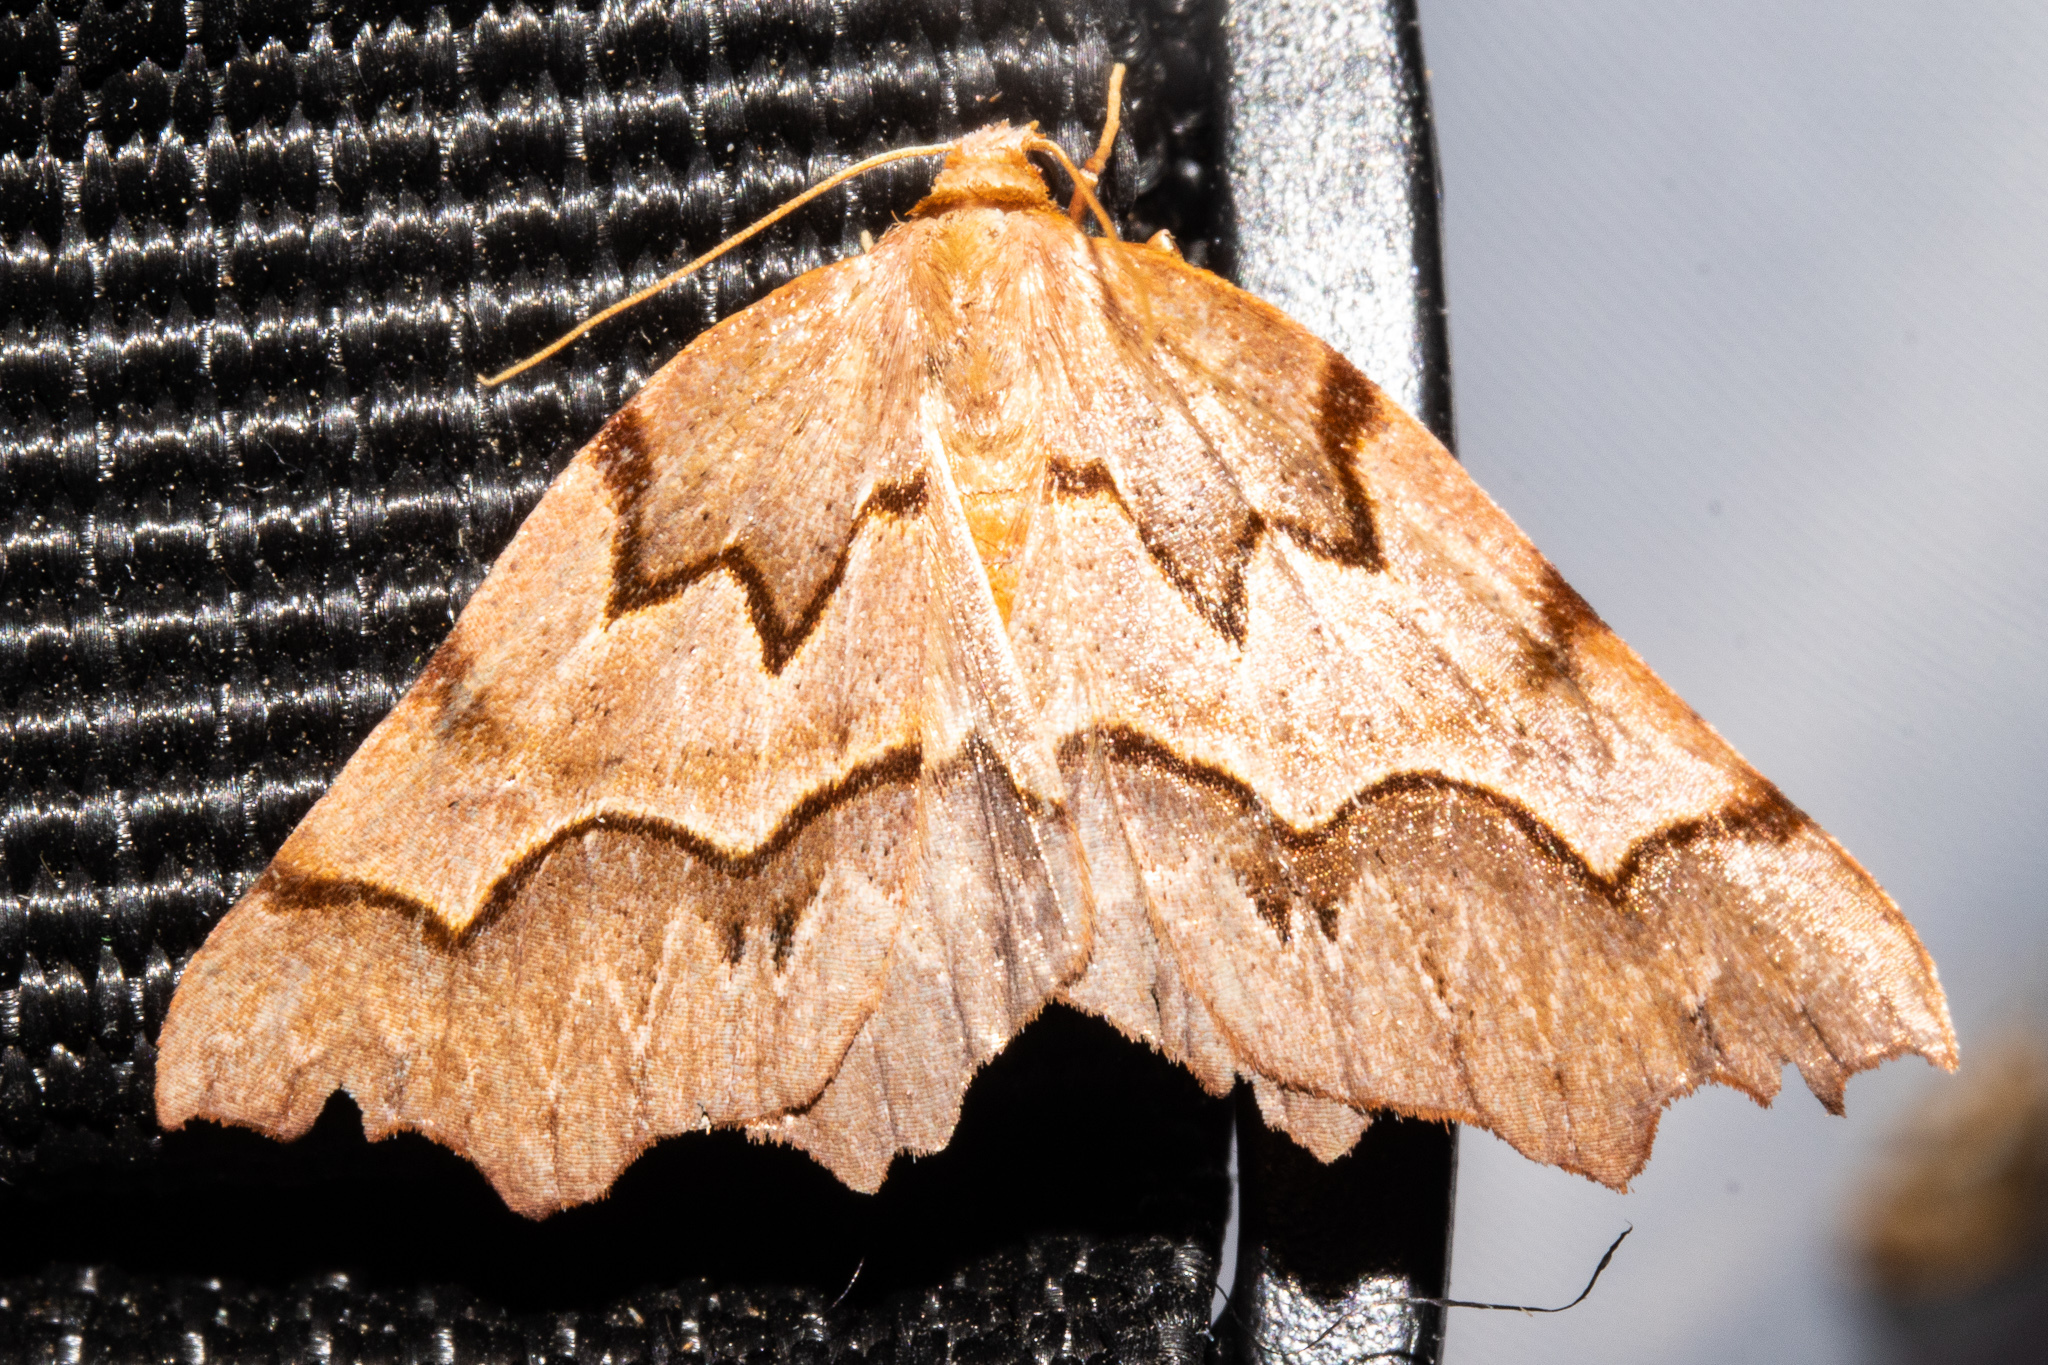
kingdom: Animalia
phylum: Arthropoda
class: Insecta
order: Lepidoptera
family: Geometridae
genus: Ischalis
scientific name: Ischalis fortinata
